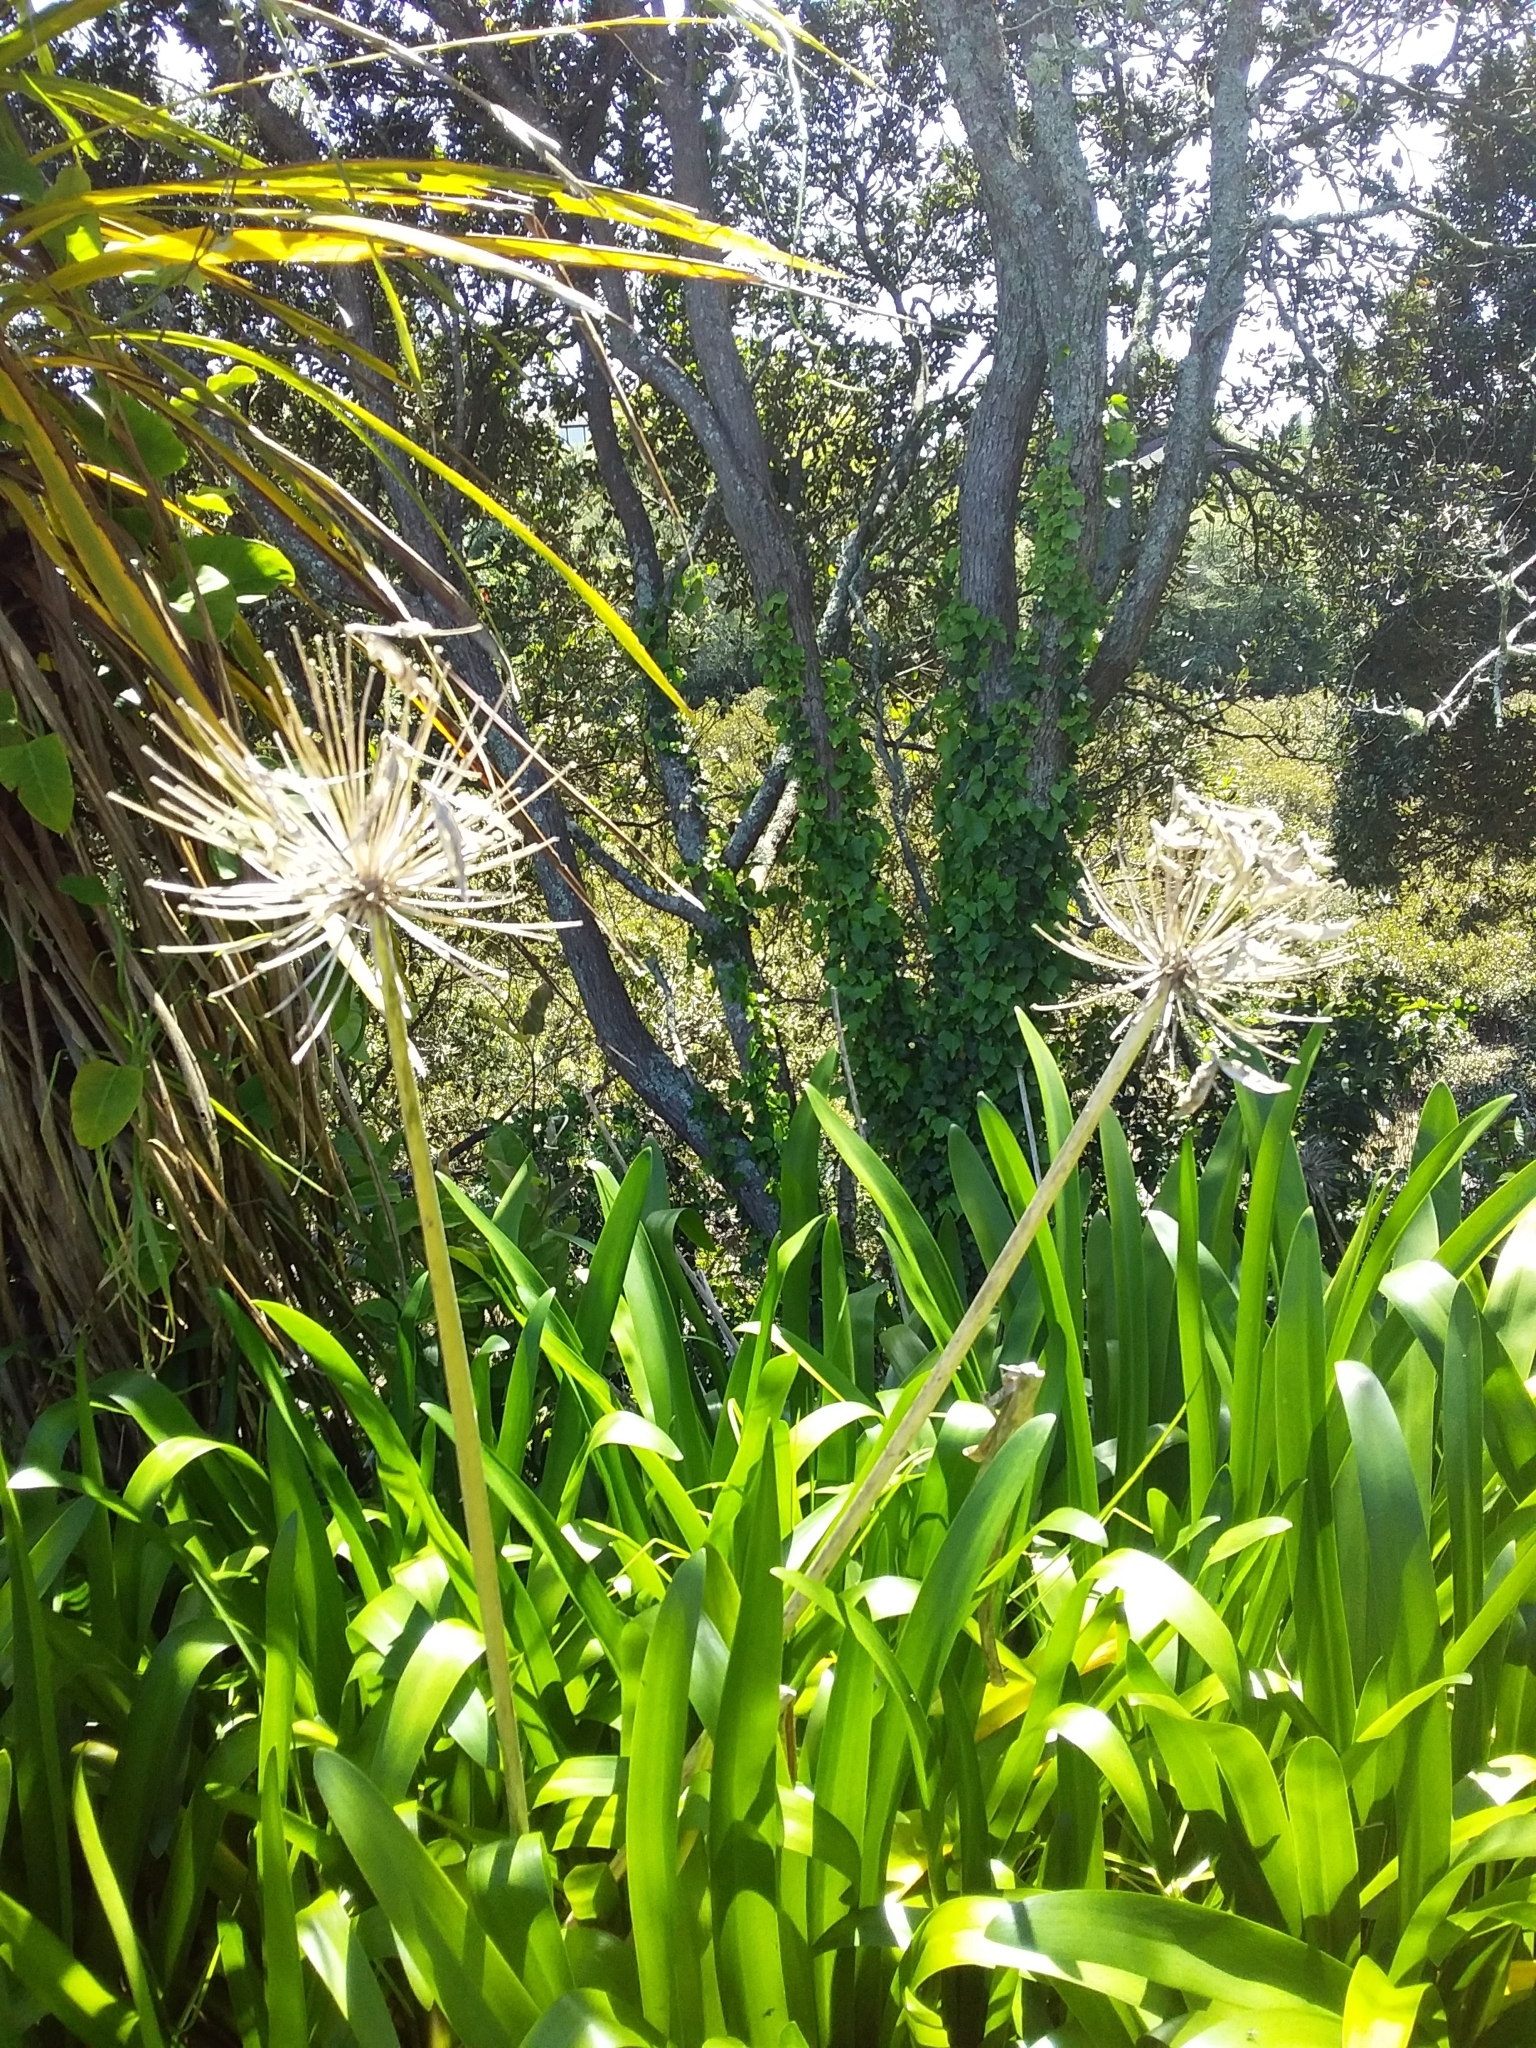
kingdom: Plantae
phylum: Tracheophyta
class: Liliopsida
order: Asparagales
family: Amaryllidaceae
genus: Agapanthus
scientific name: Agapanthus praecox
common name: African-lily
